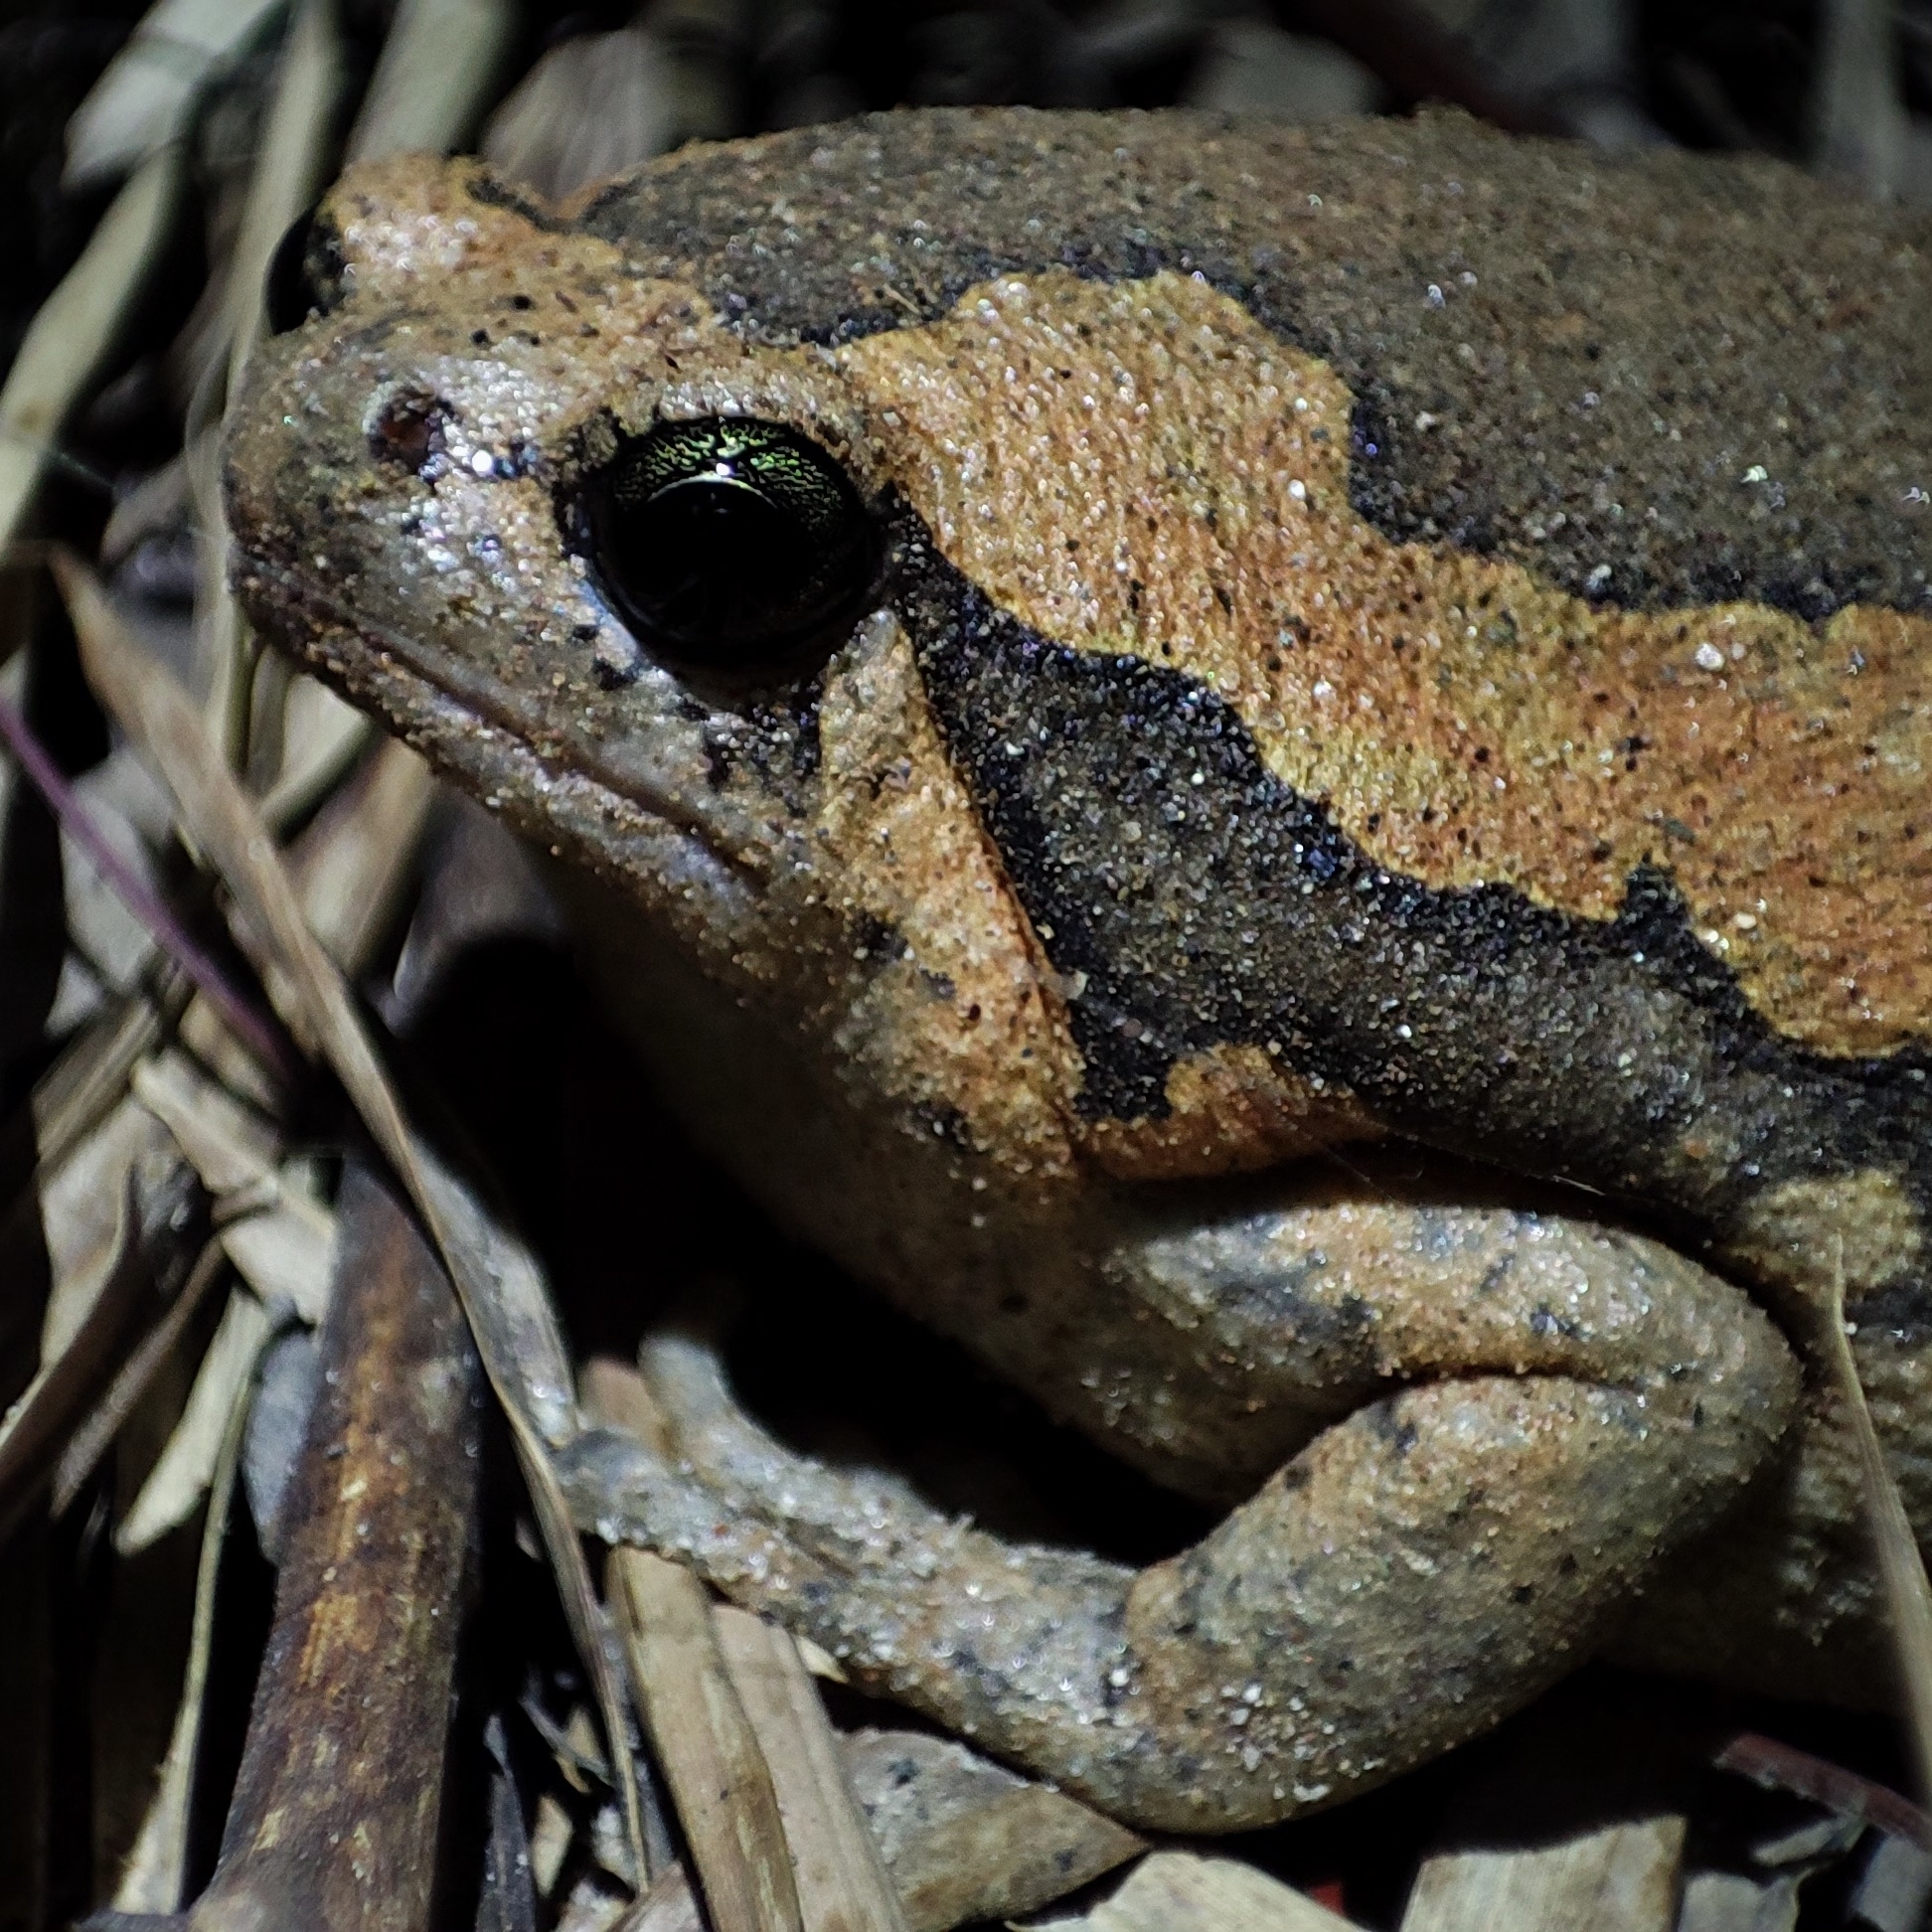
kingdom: Animalia
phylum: Chordata
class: Amphibia
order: Anura
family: Microhylidae
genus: Kaloula
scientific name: Kaloula pulchra
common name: Common,banded bullfrog
